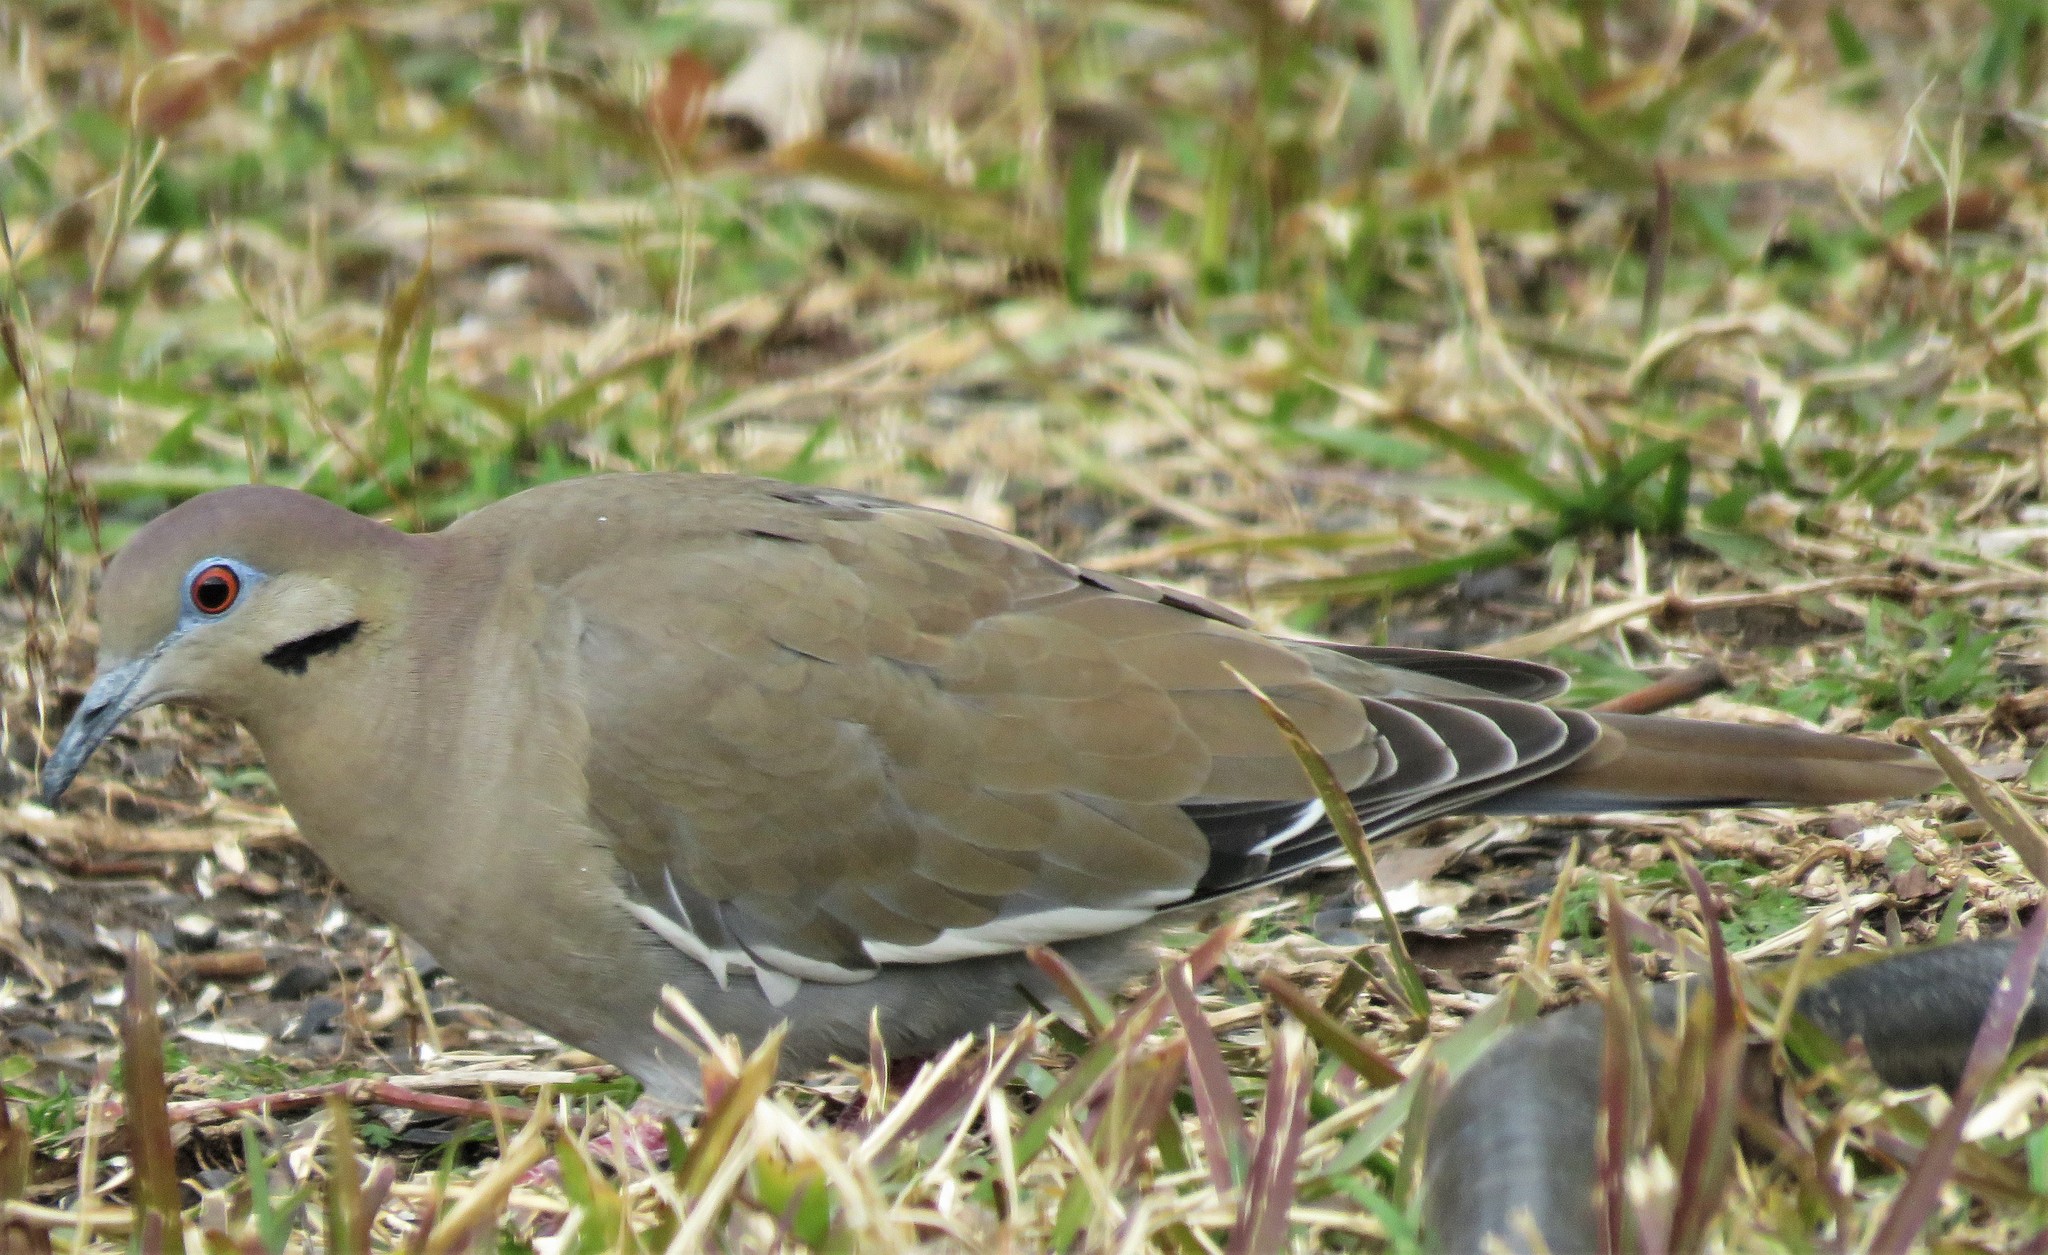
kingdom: Animalia
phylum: Chordata
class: Aves
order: Columbiformes
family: Columbidae
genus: Zenaida
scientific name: Zenaida asiatica
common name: White-winged dove
